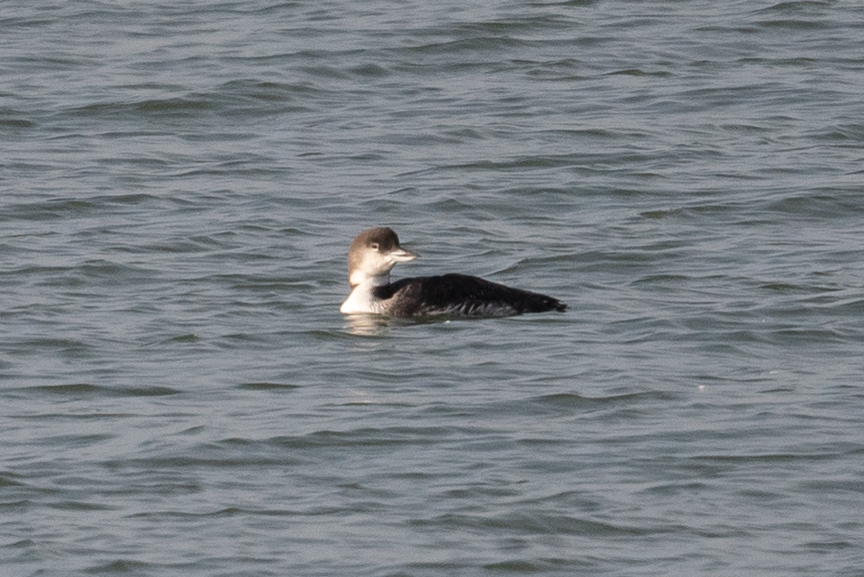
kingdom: Animalia
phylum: Chordata
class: Aves
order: Gaviiformes
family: Gaviidae
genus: Gavia
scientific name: Gavia immer
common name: Common loon
